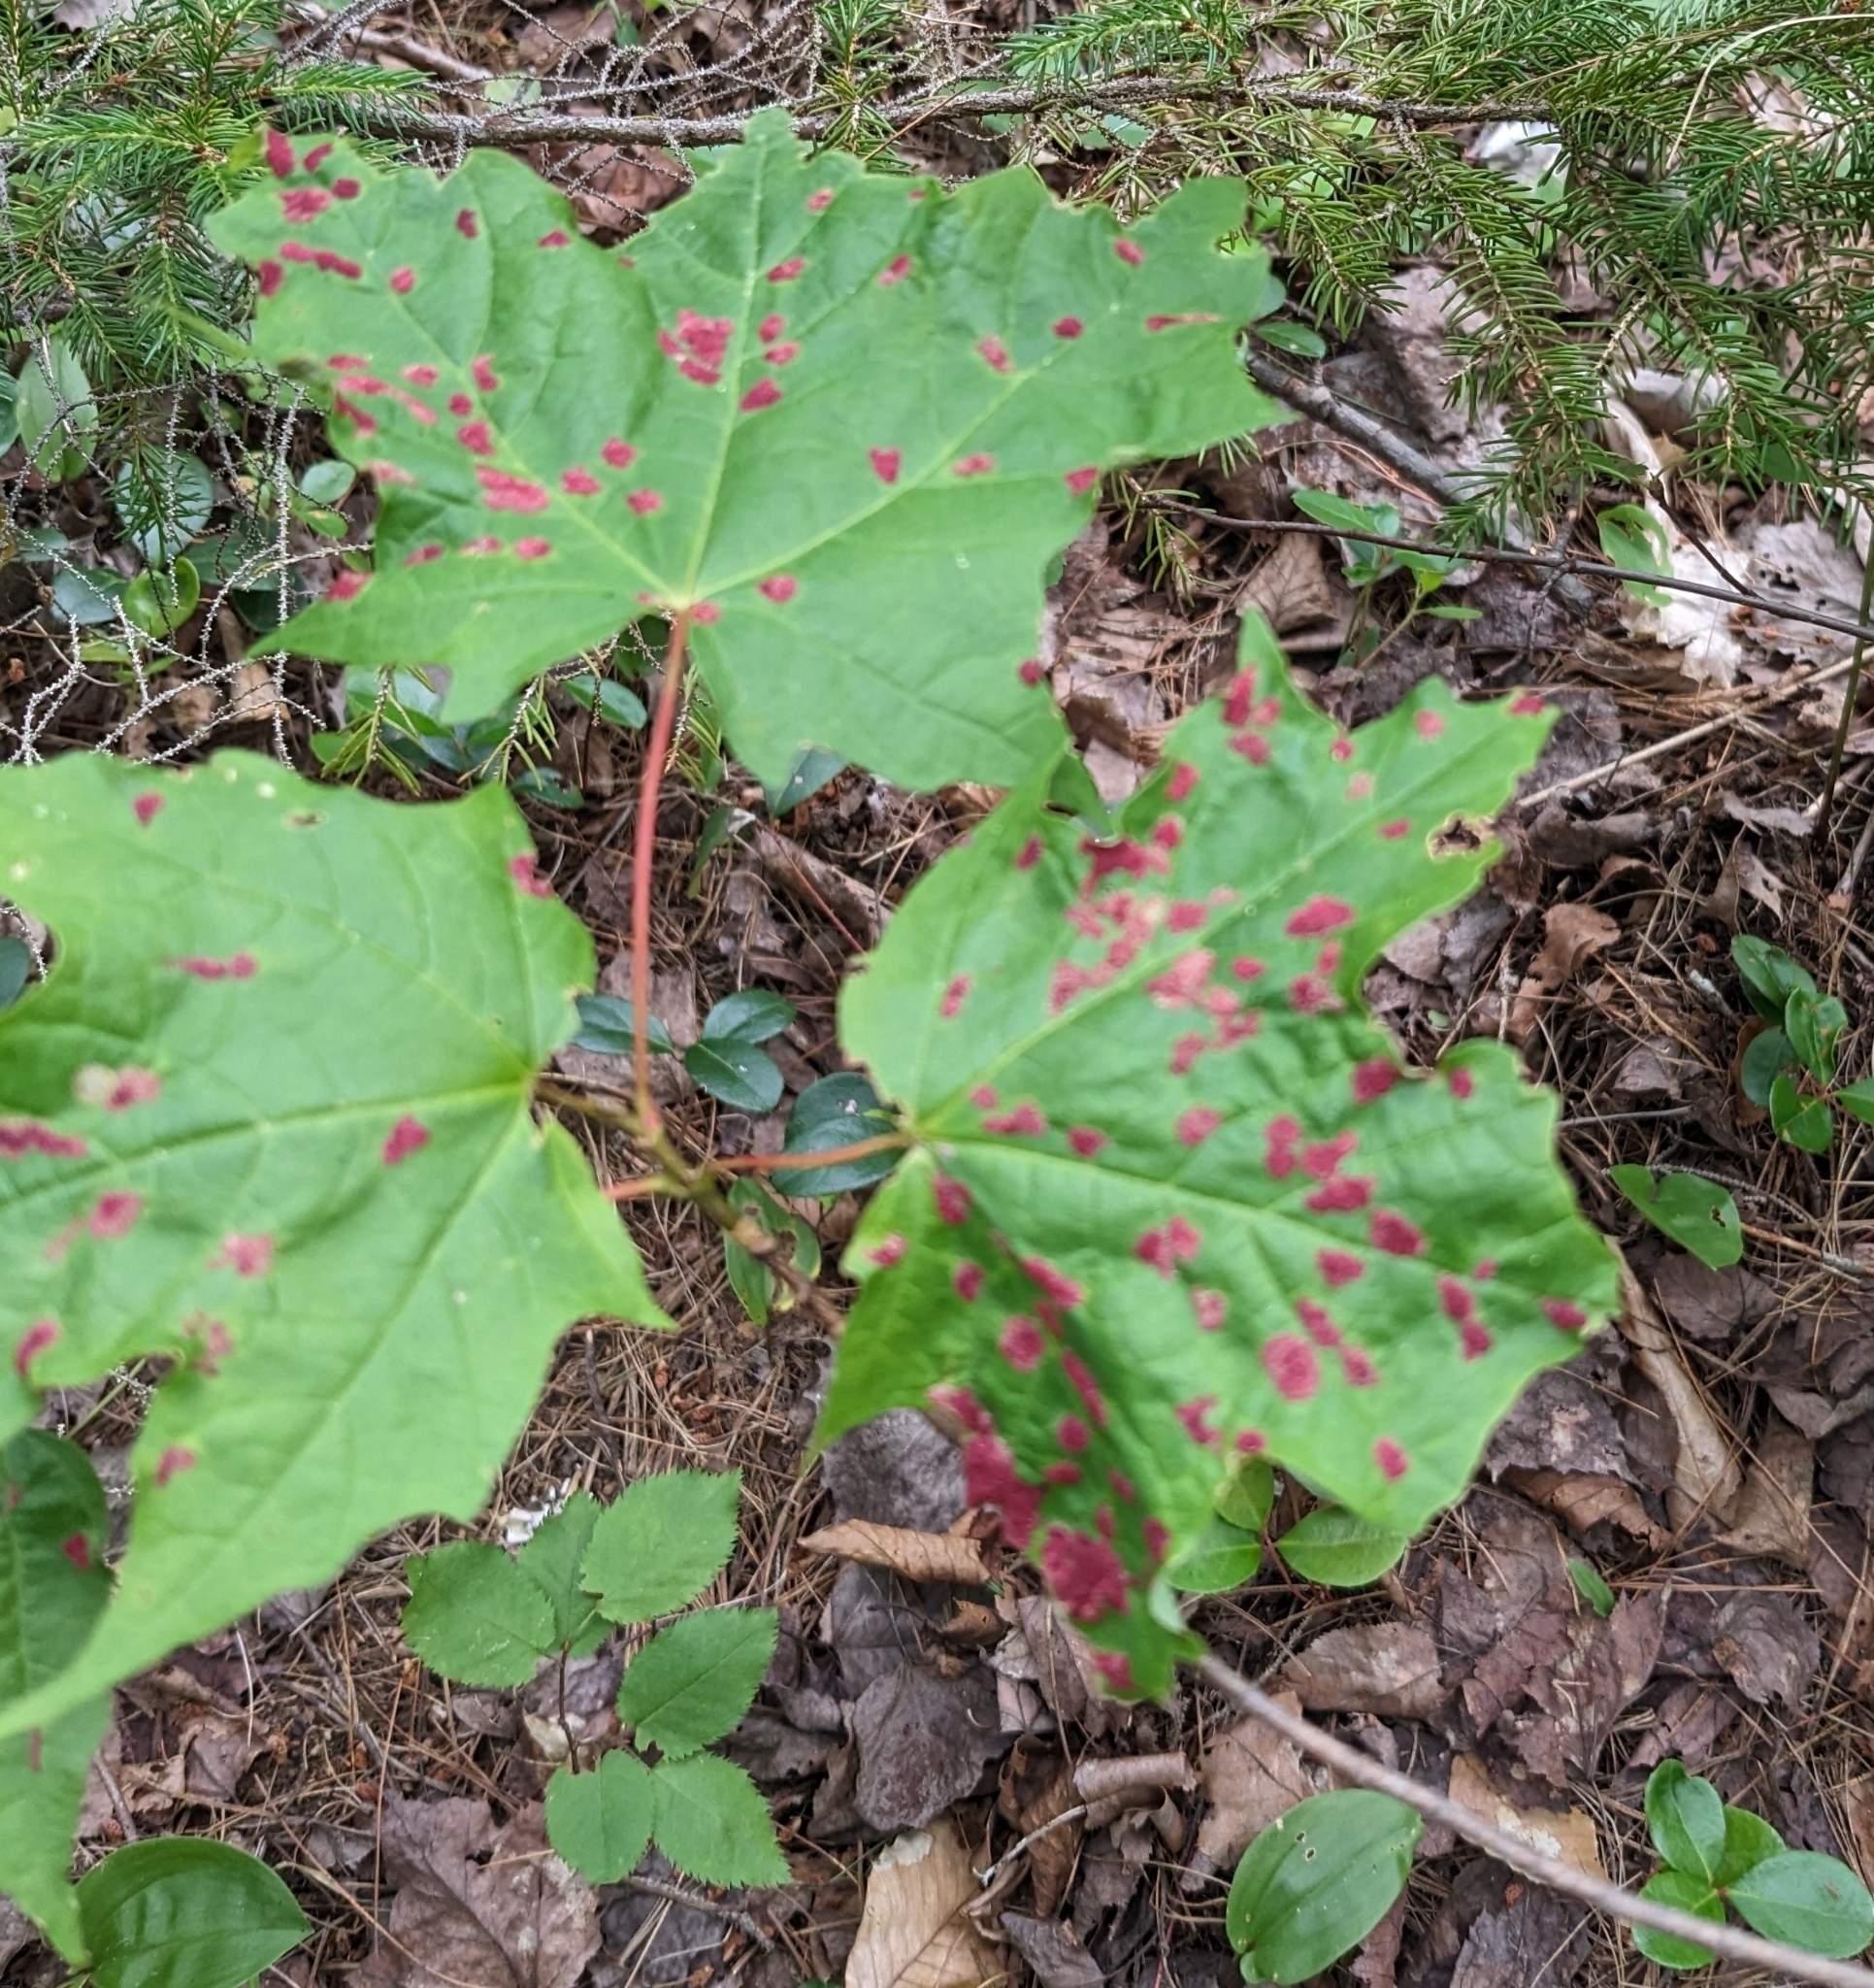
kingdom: Animalia
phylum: Arthropoda
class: Arachnida
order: Trombidiformes
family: Eriophyidae
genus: Aceria
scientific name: Aceria
